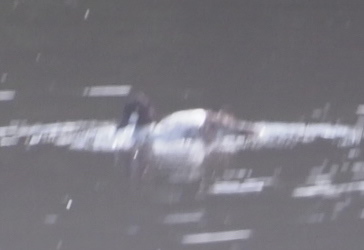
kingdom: Animalia
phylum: Chordata
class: Aves
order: Anseriformes
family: Anatidae
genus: Bucephala
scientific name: Bucephala clangula
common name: Common goldeneye
